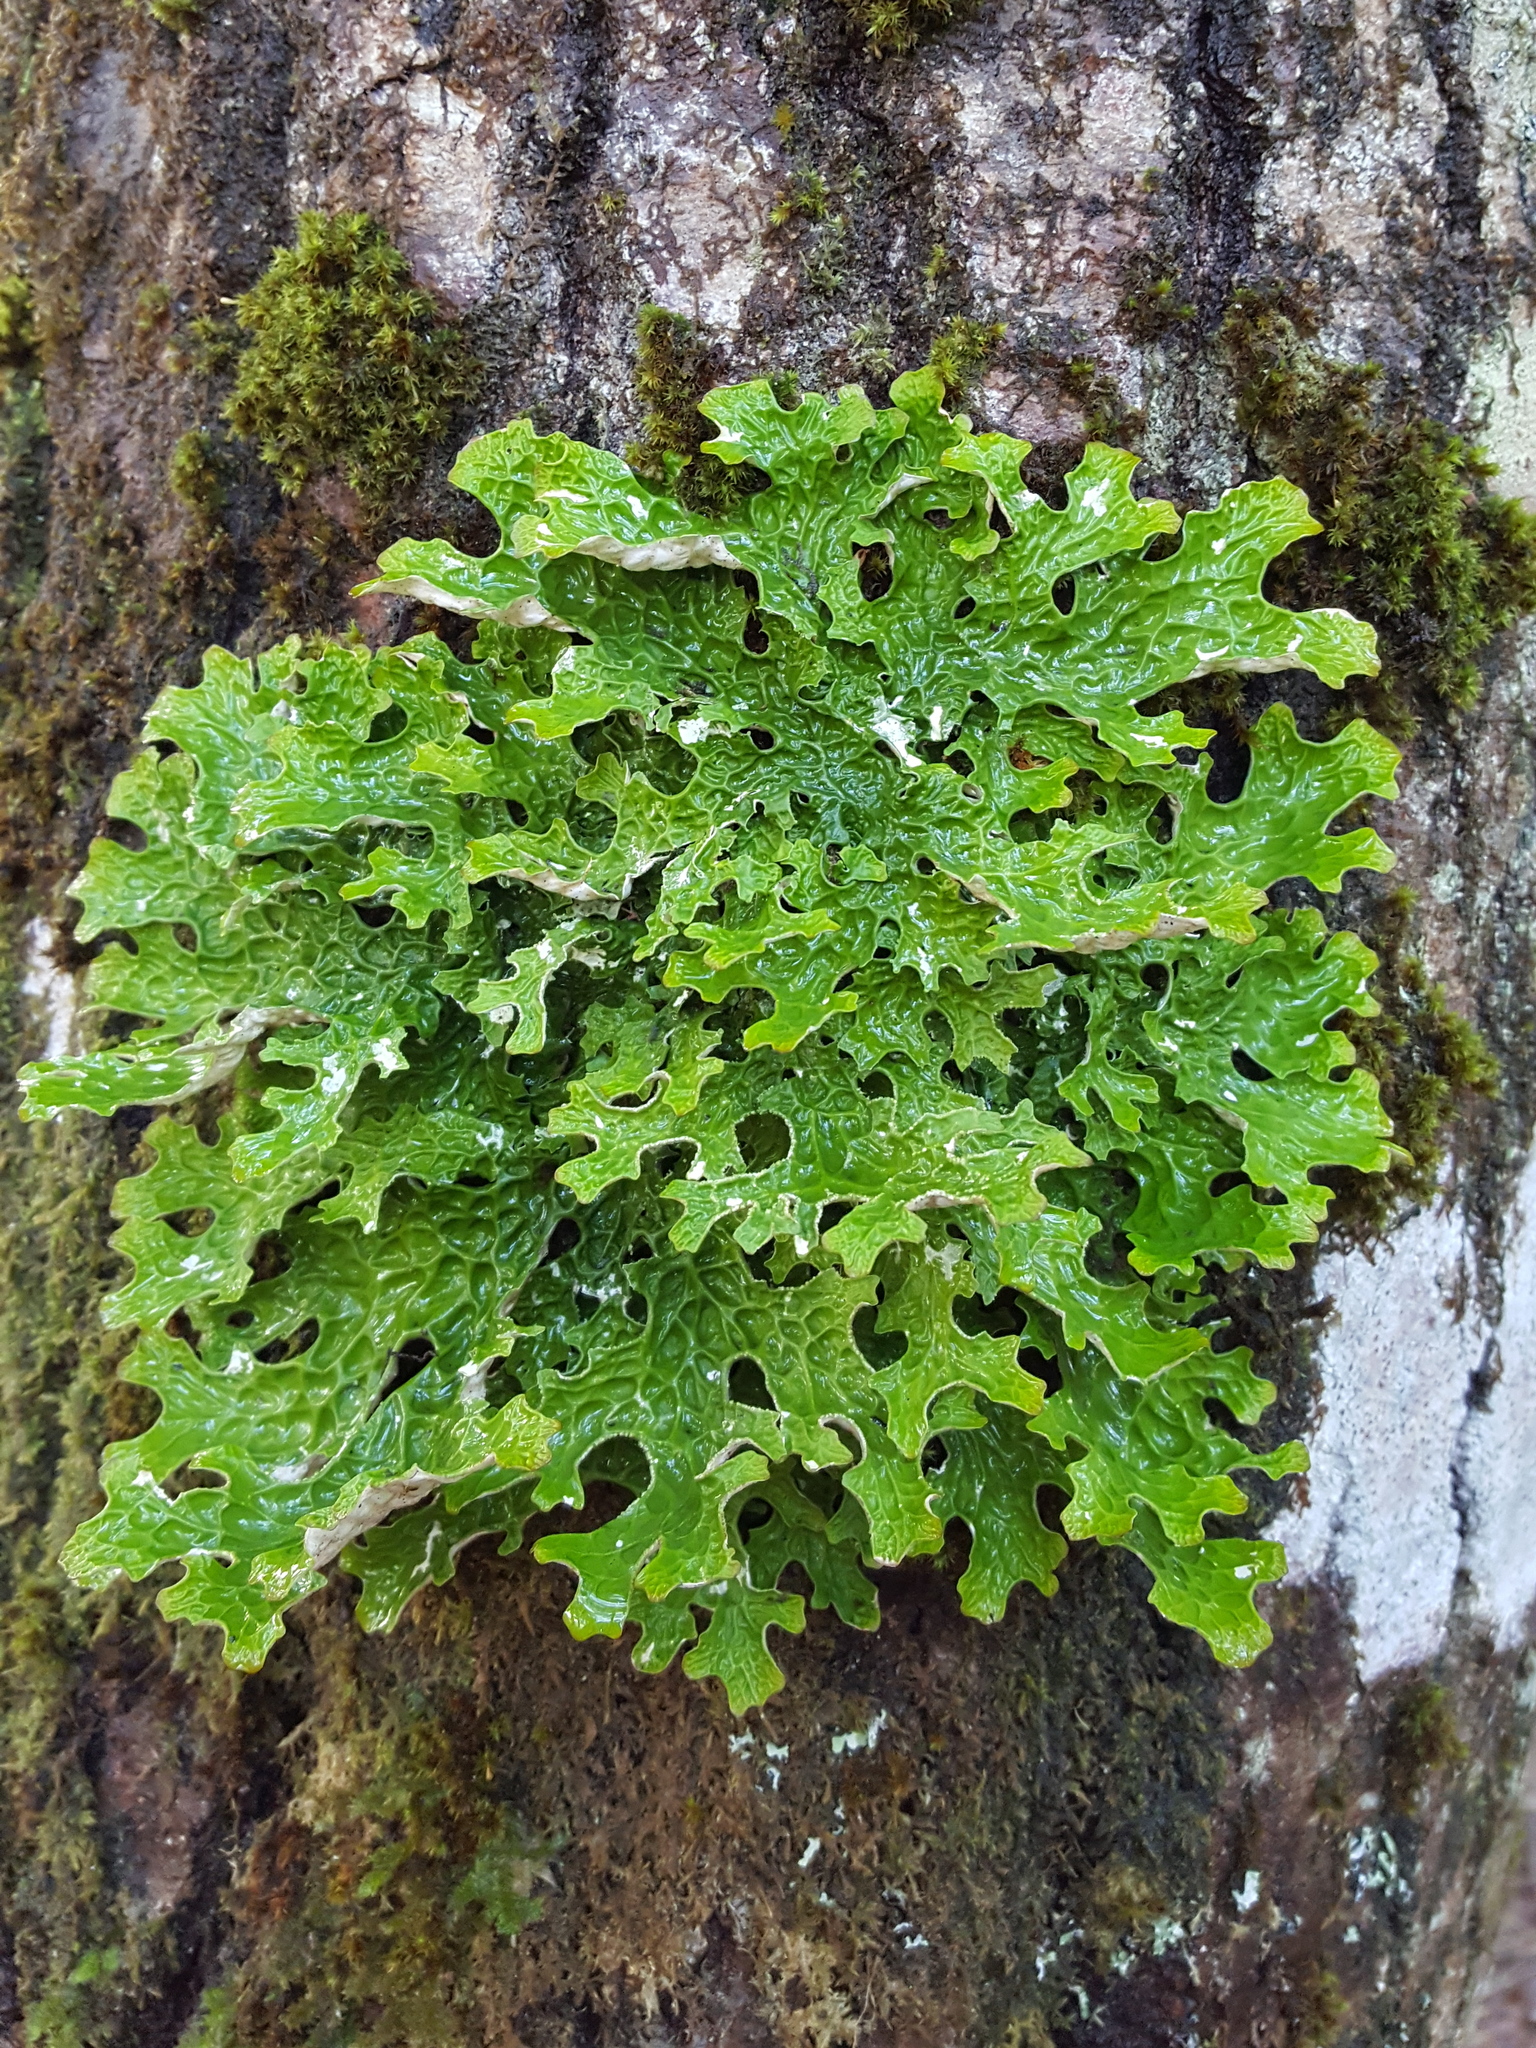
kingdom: Fungi
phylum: Ascomycota
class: Lecanoromycetes
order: Peltigerales
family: Lobariaceae
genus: Lobaria
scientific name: Lobaria pulmonaria
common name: Lungwort
